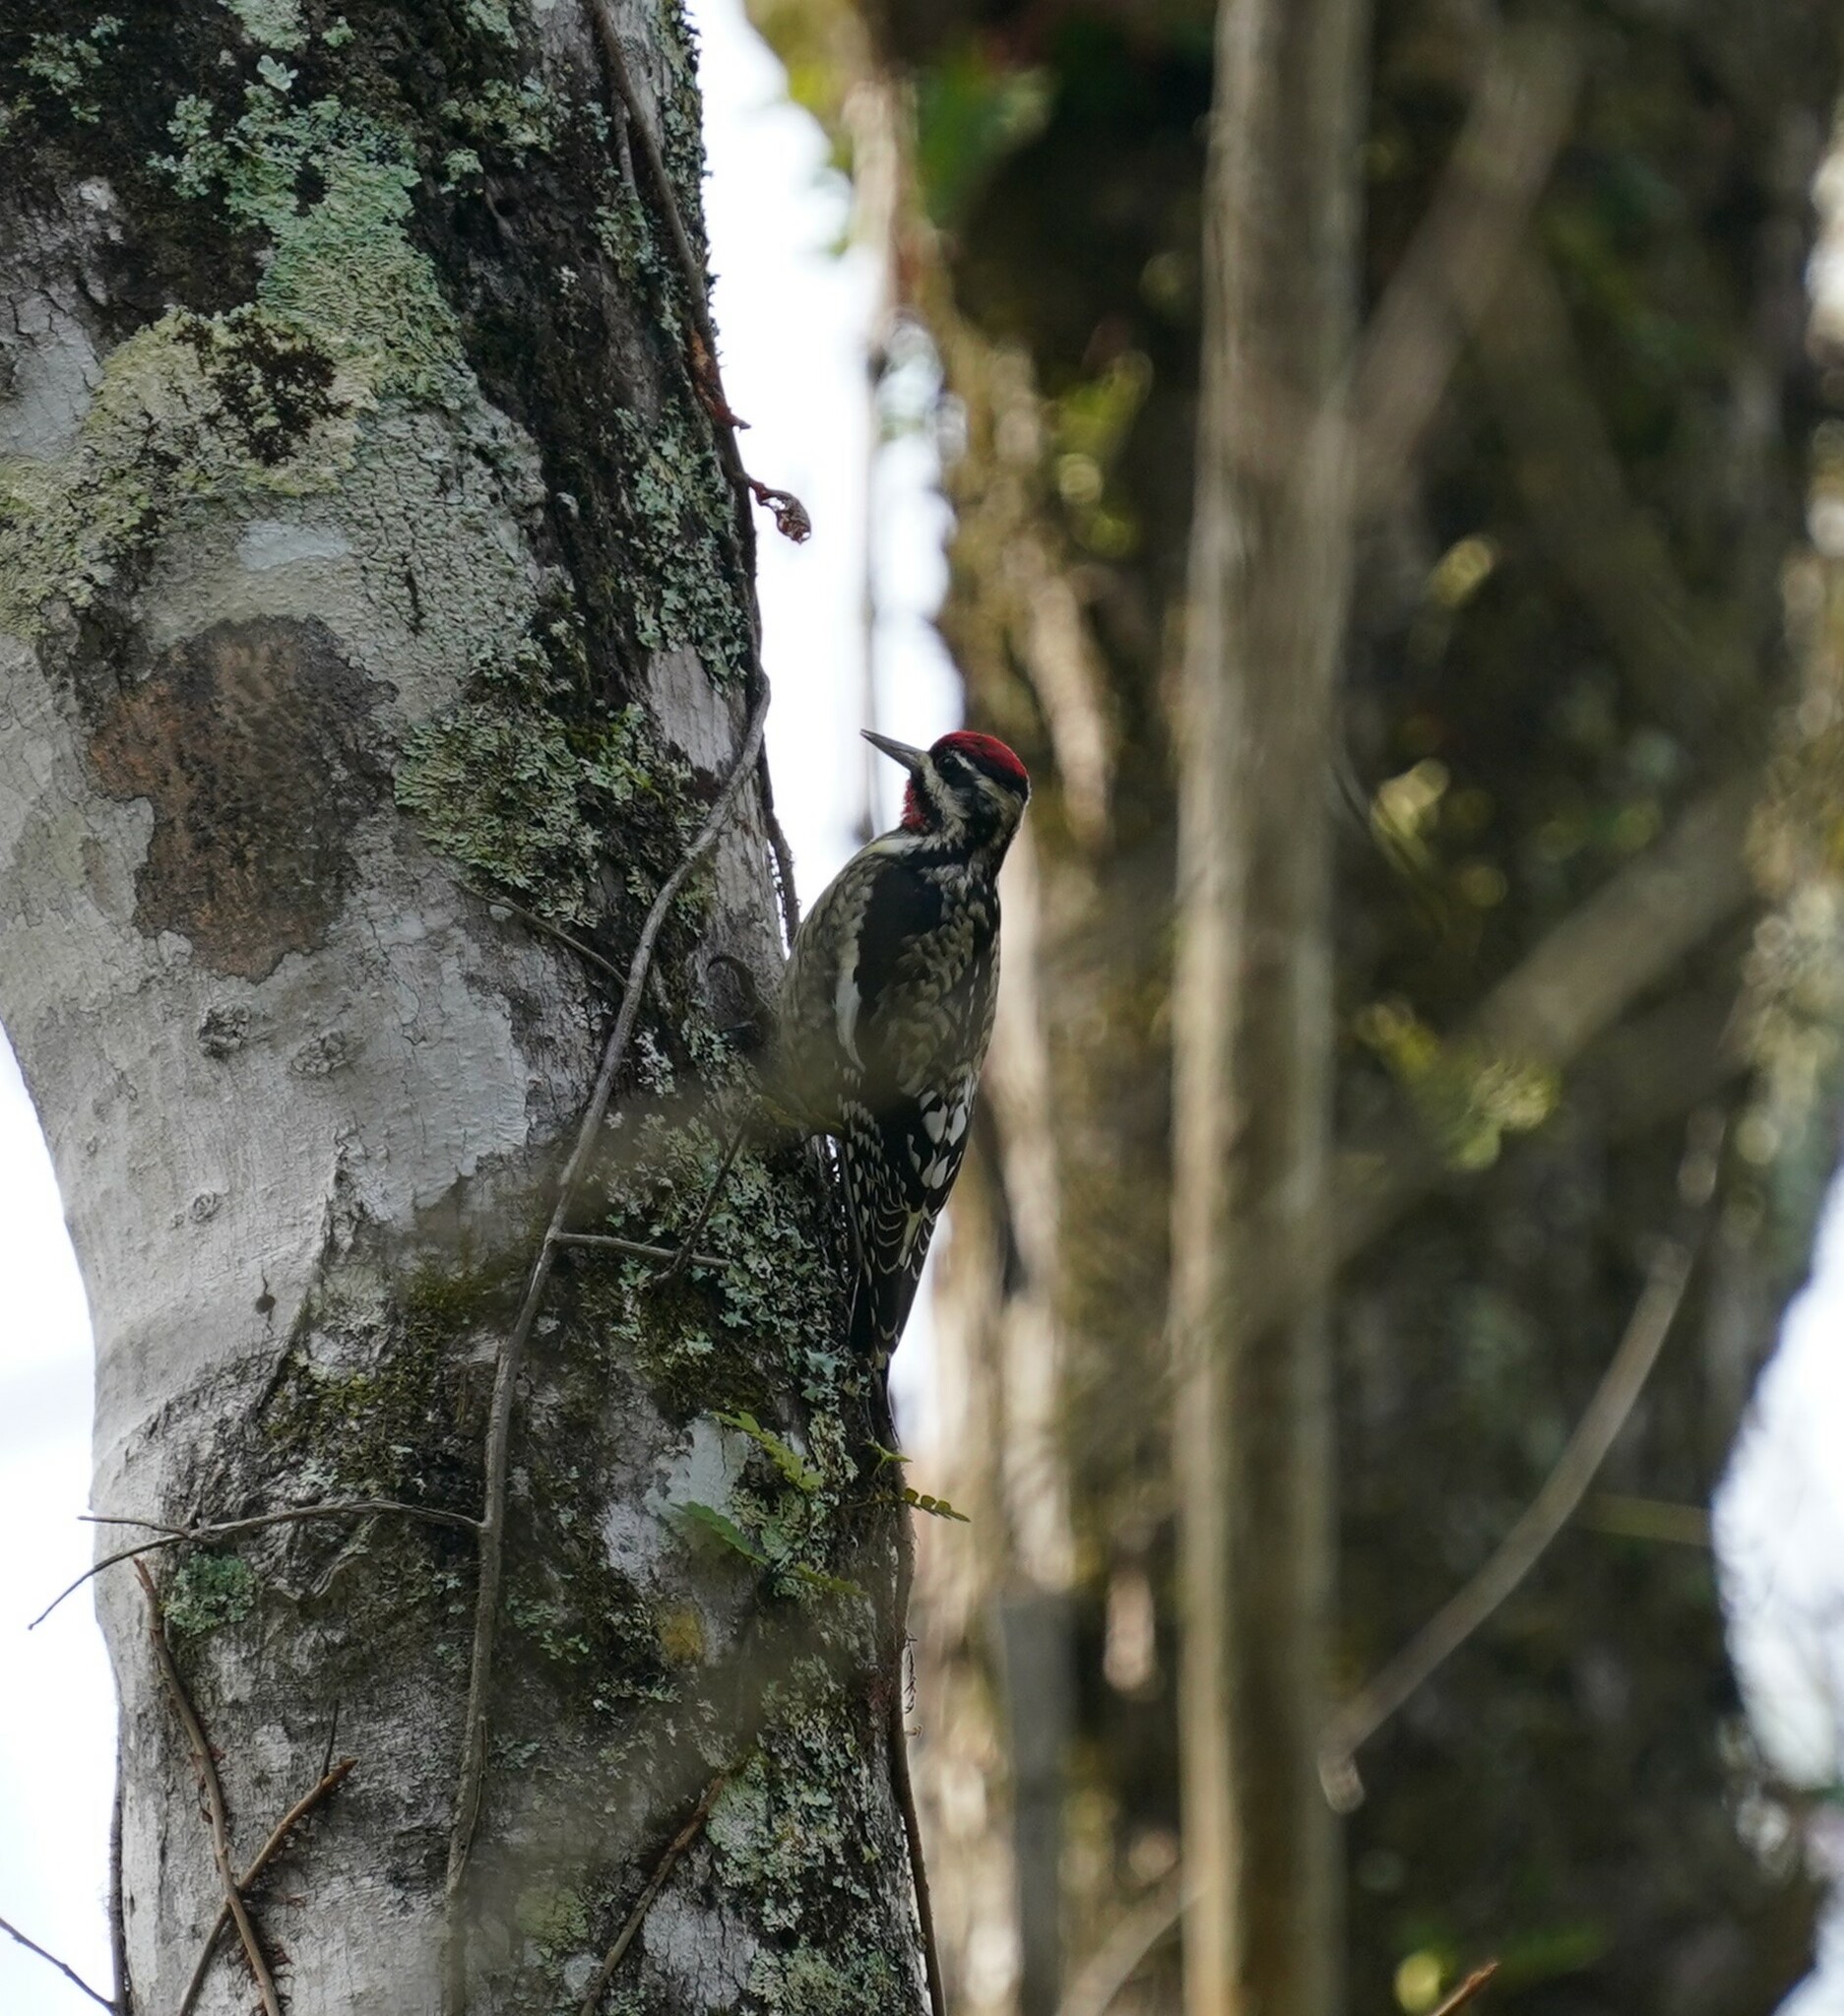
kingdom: Animalia
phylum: Chordata
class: Aves
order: Piciformes
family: Picidae
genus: Sphyrapicus
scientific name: Sphyrapicus varius
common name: Yellow-bellied sapsucker
